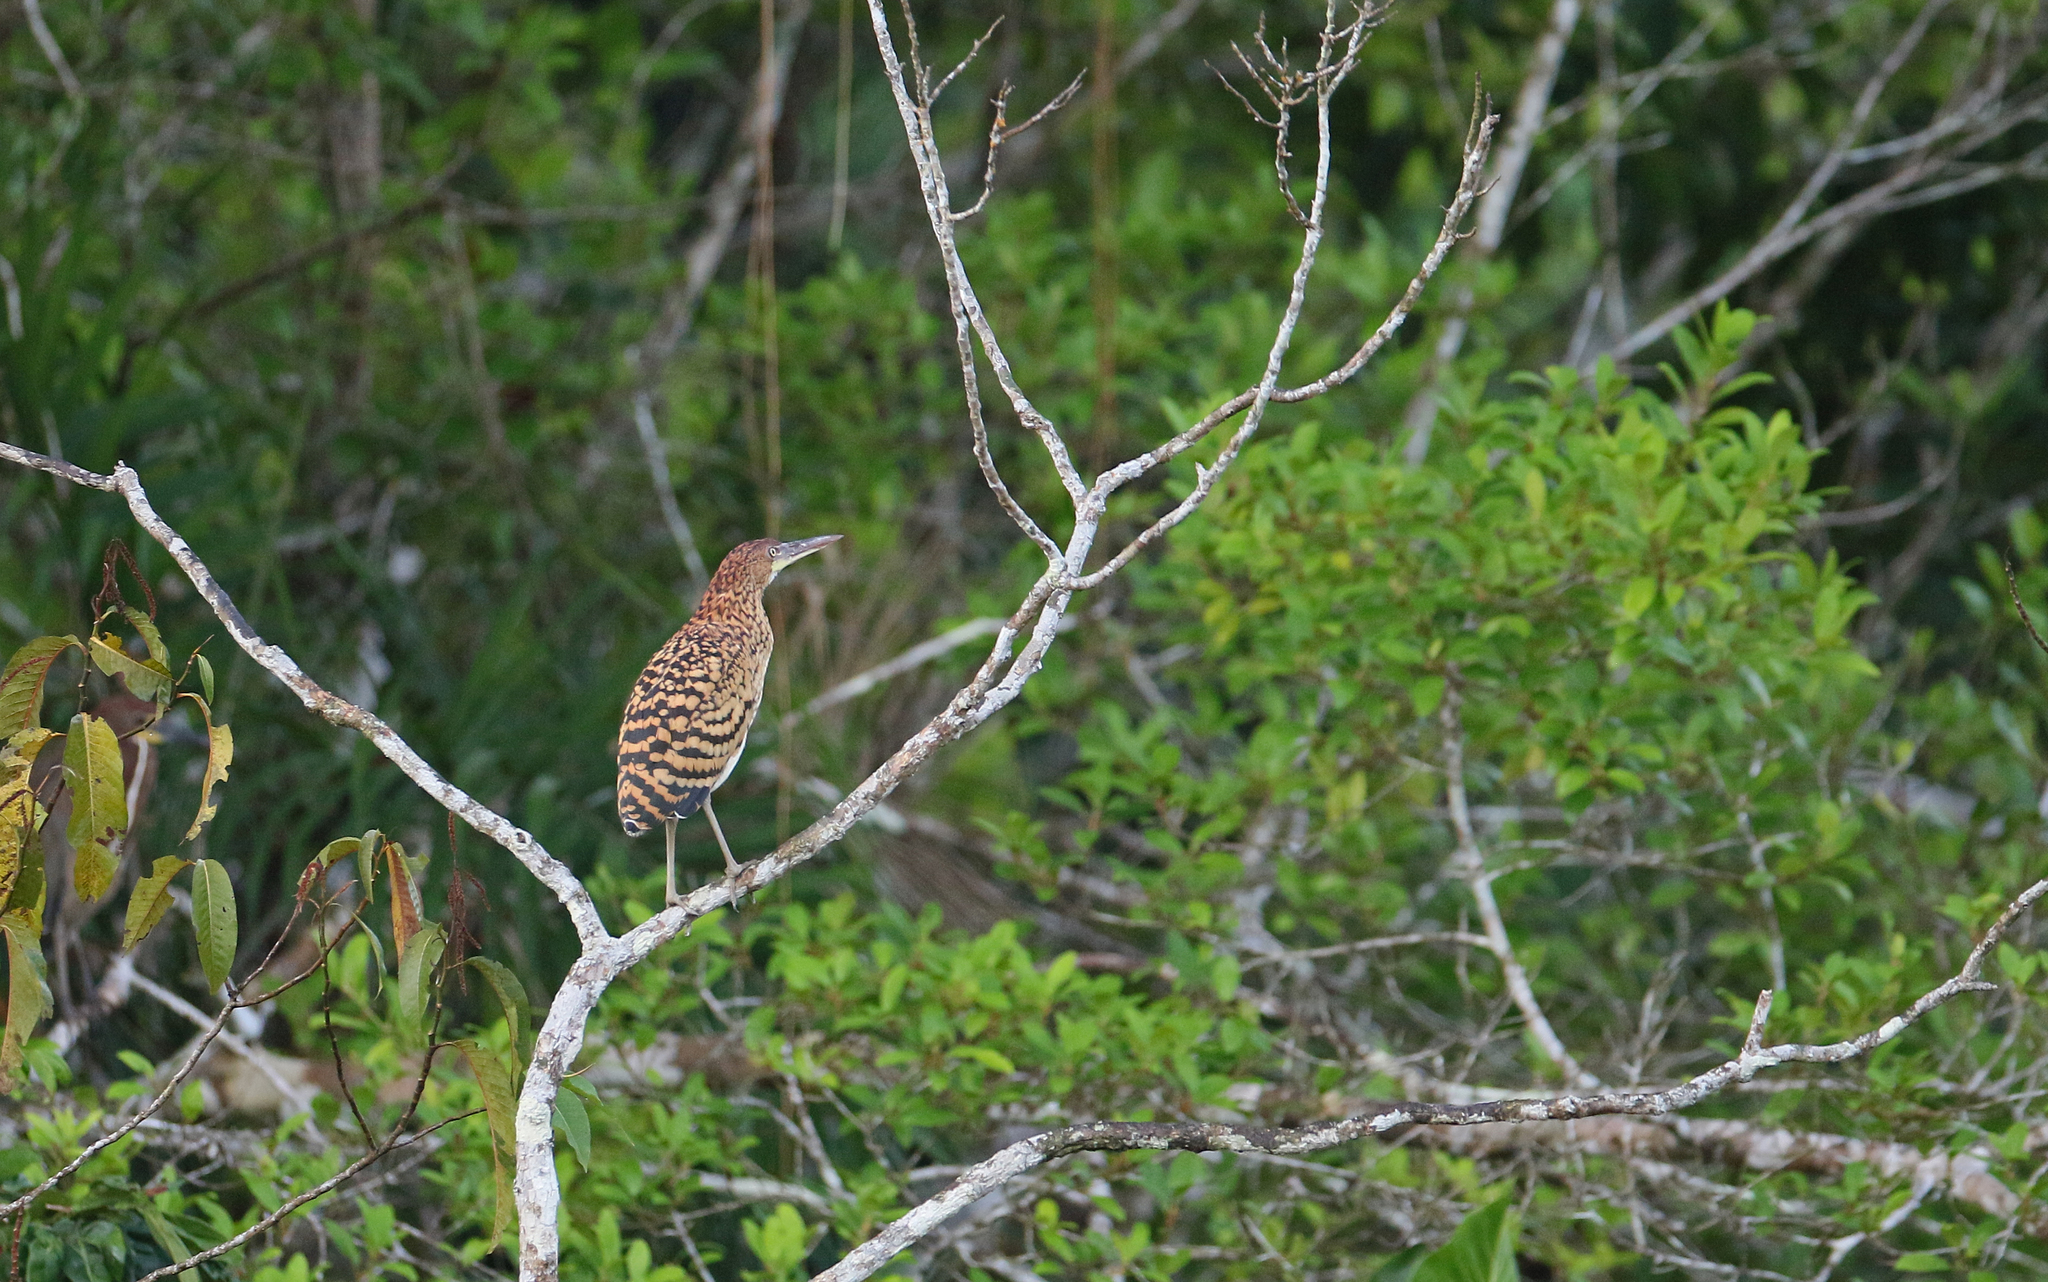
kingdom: Animalia
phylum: Chordata
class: Aves
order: Pelecaniformes
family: Ardeidae
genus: Tigrisoma
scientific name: Tigrisoma lineatum
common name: Rufescent tiger-heron
